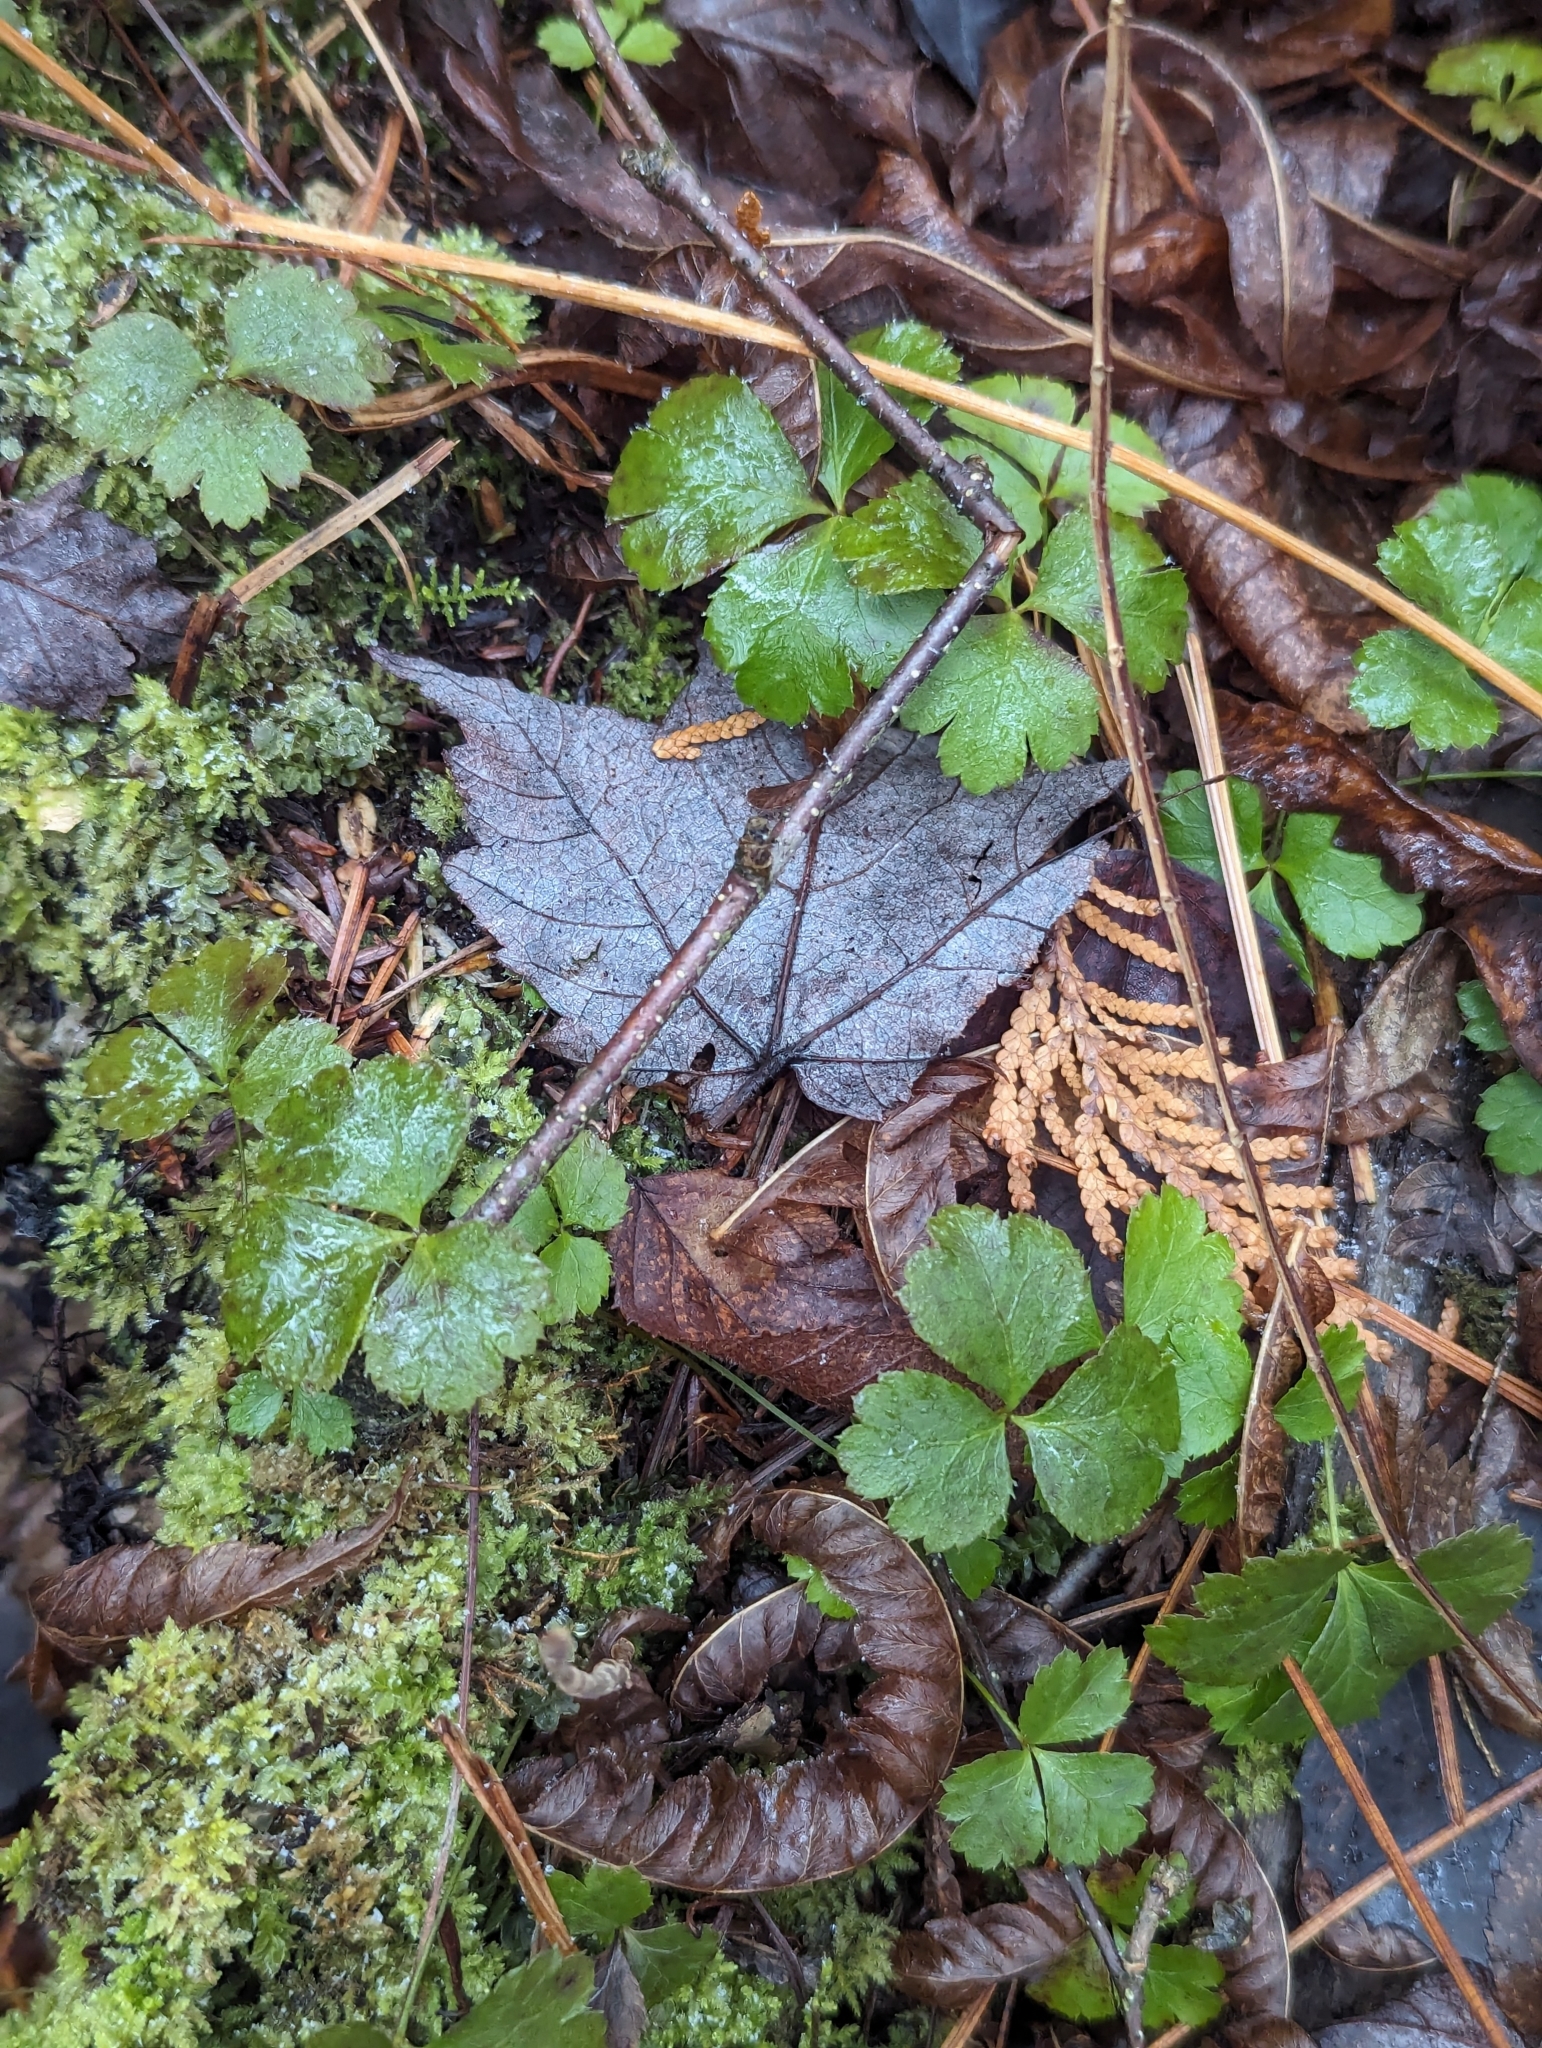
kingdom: Plantae
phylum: Tracheophyta
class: Magnoliopsida
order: Ranunculales
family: Ranunculaceae
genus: Coptis
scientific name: Coptis trifolia
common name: Canker-root
